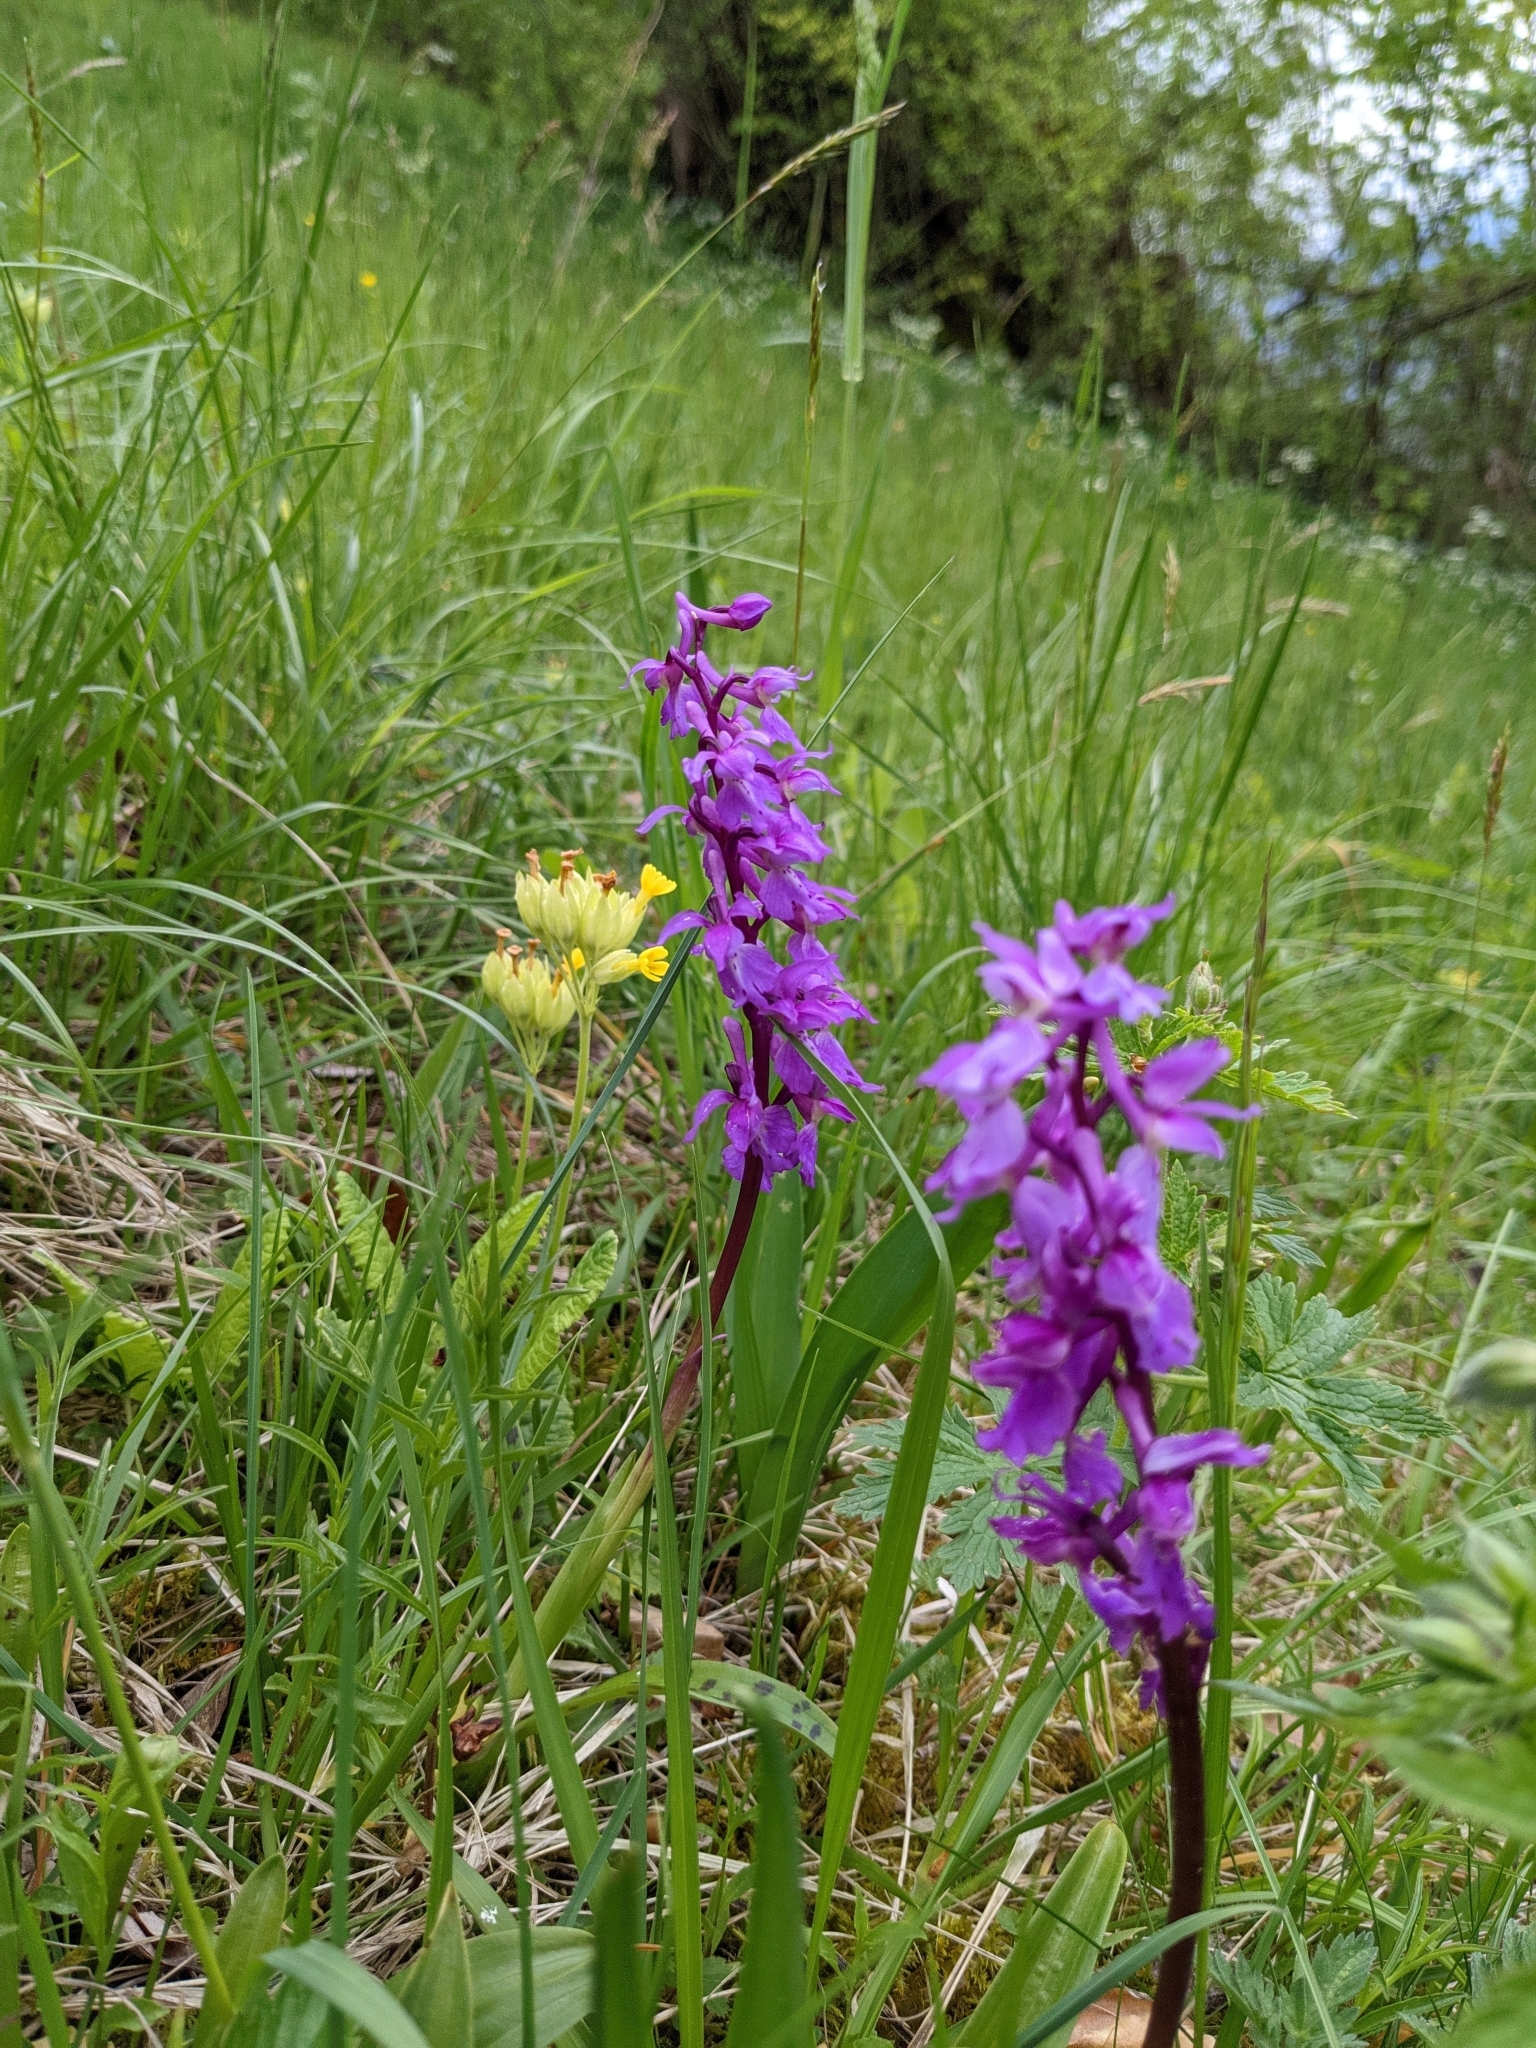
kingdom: Plantae
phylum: Tracheophyta
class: Liliopsida
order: Asparagales
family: Orchidaceae
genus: Orchis
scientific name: Orchis mascula
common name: Early-purple orchid
